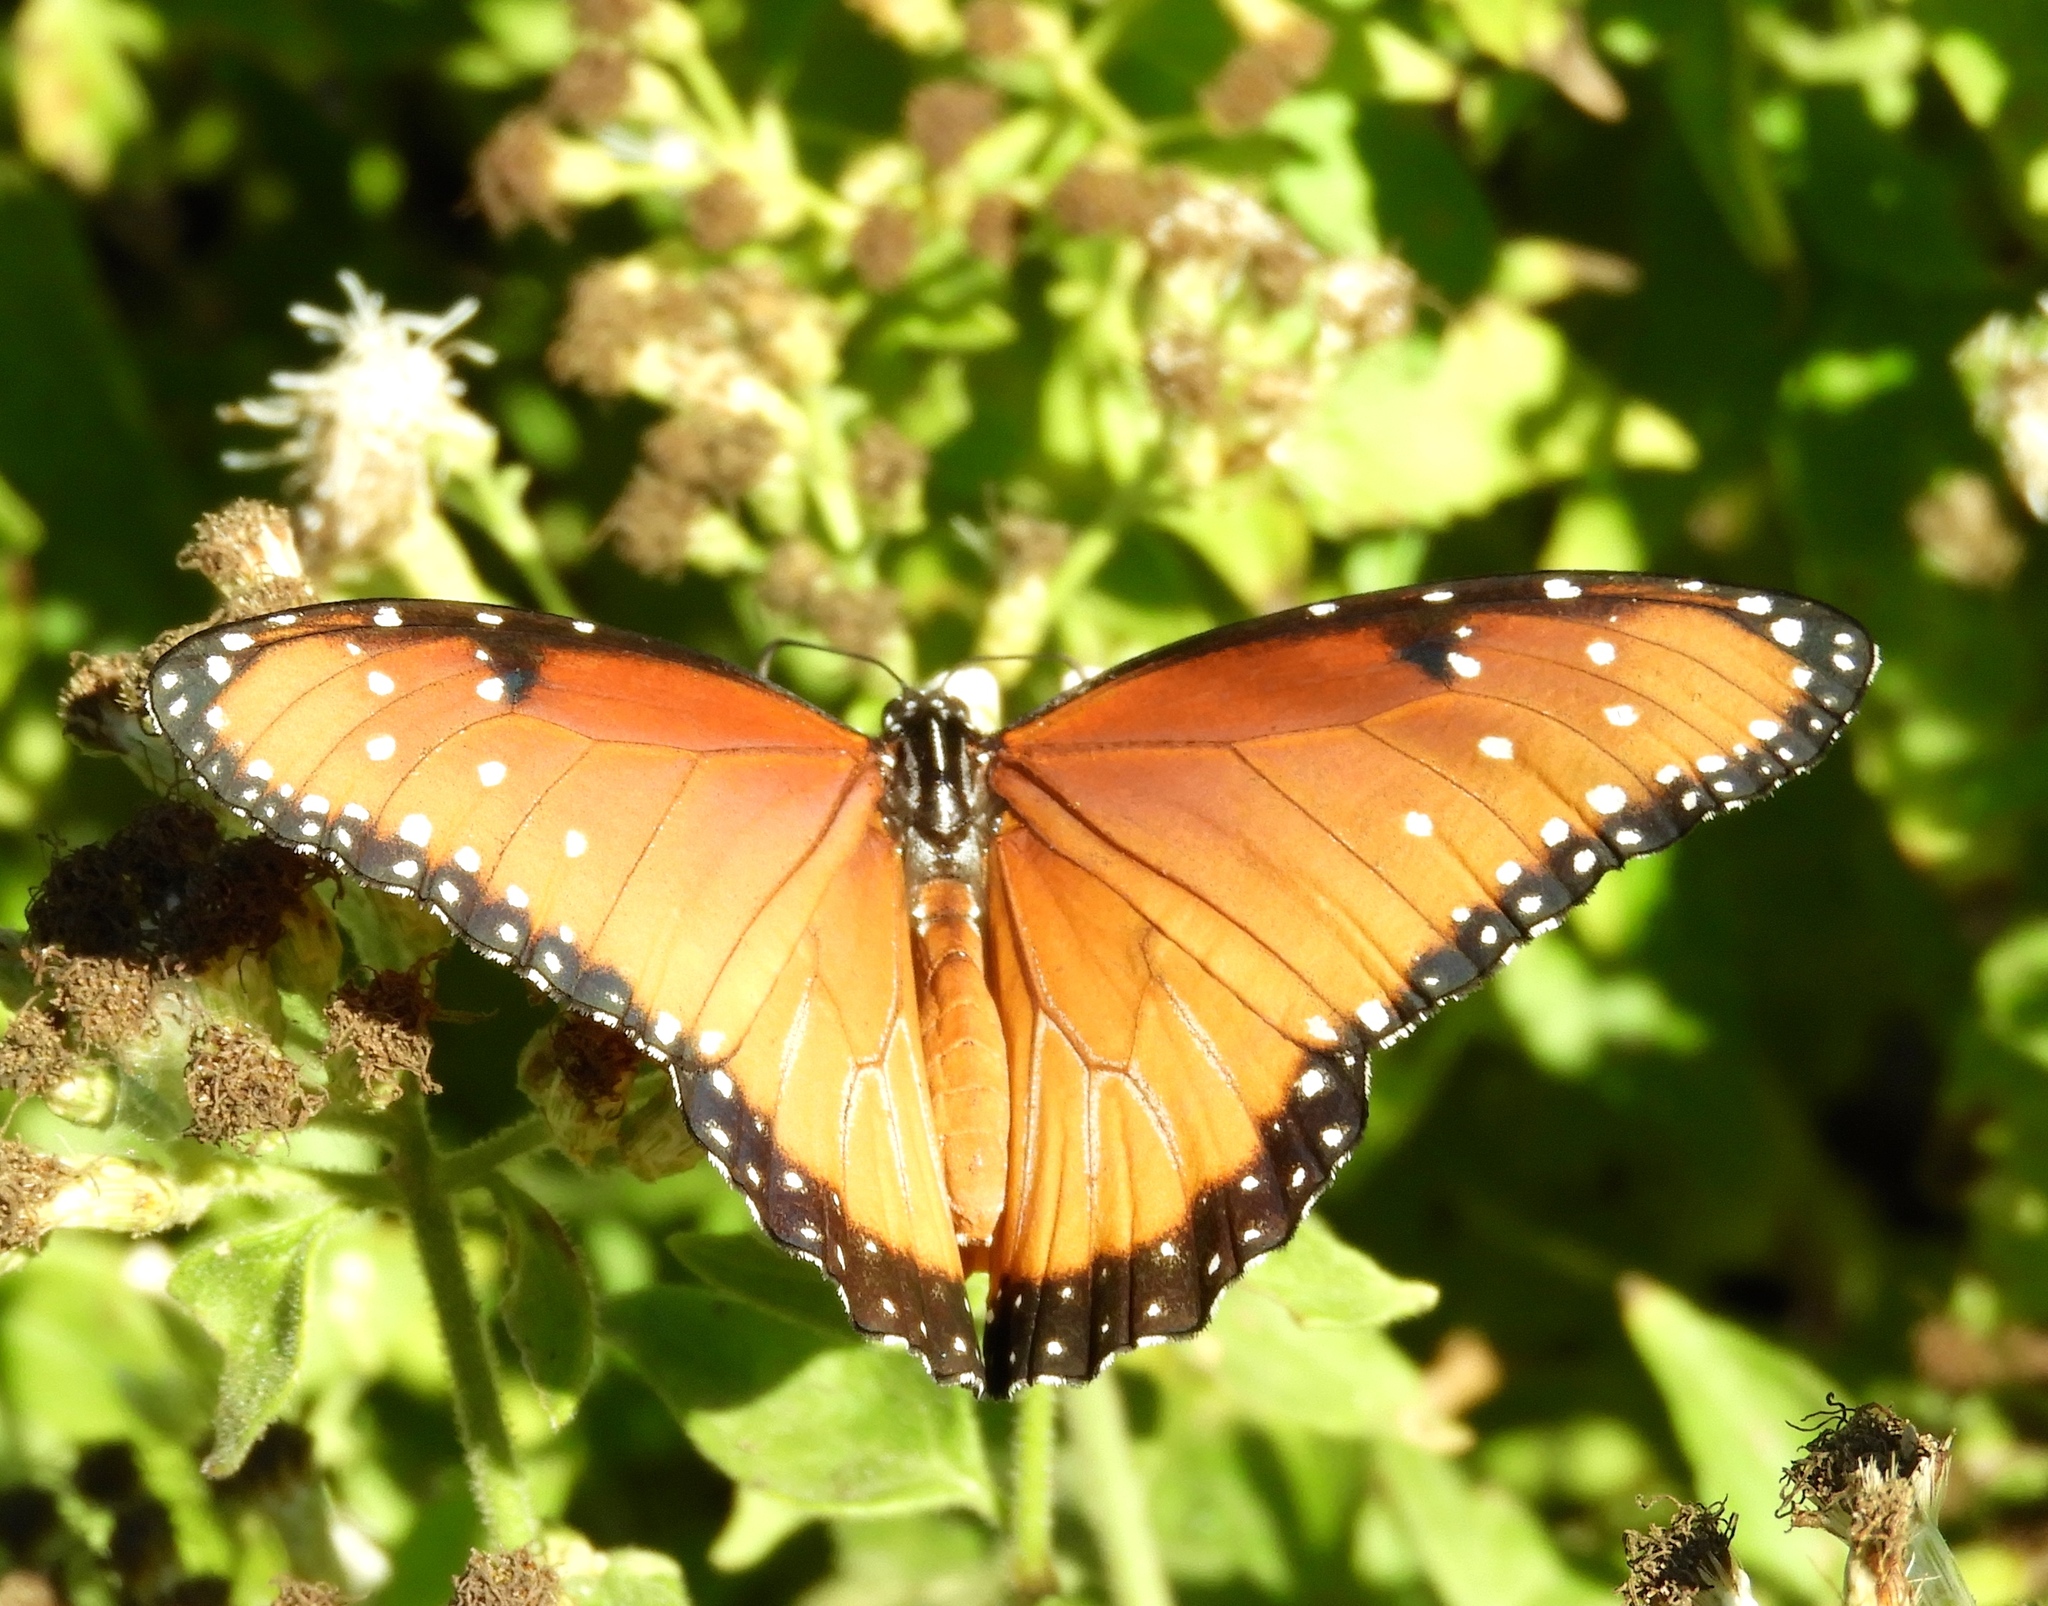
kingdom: Animalia
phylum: Arthropoda
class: Insecta
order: Lepidoptera
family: Nymphalidae
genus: Danaus
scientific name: Danaus gilippus
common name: Queen
